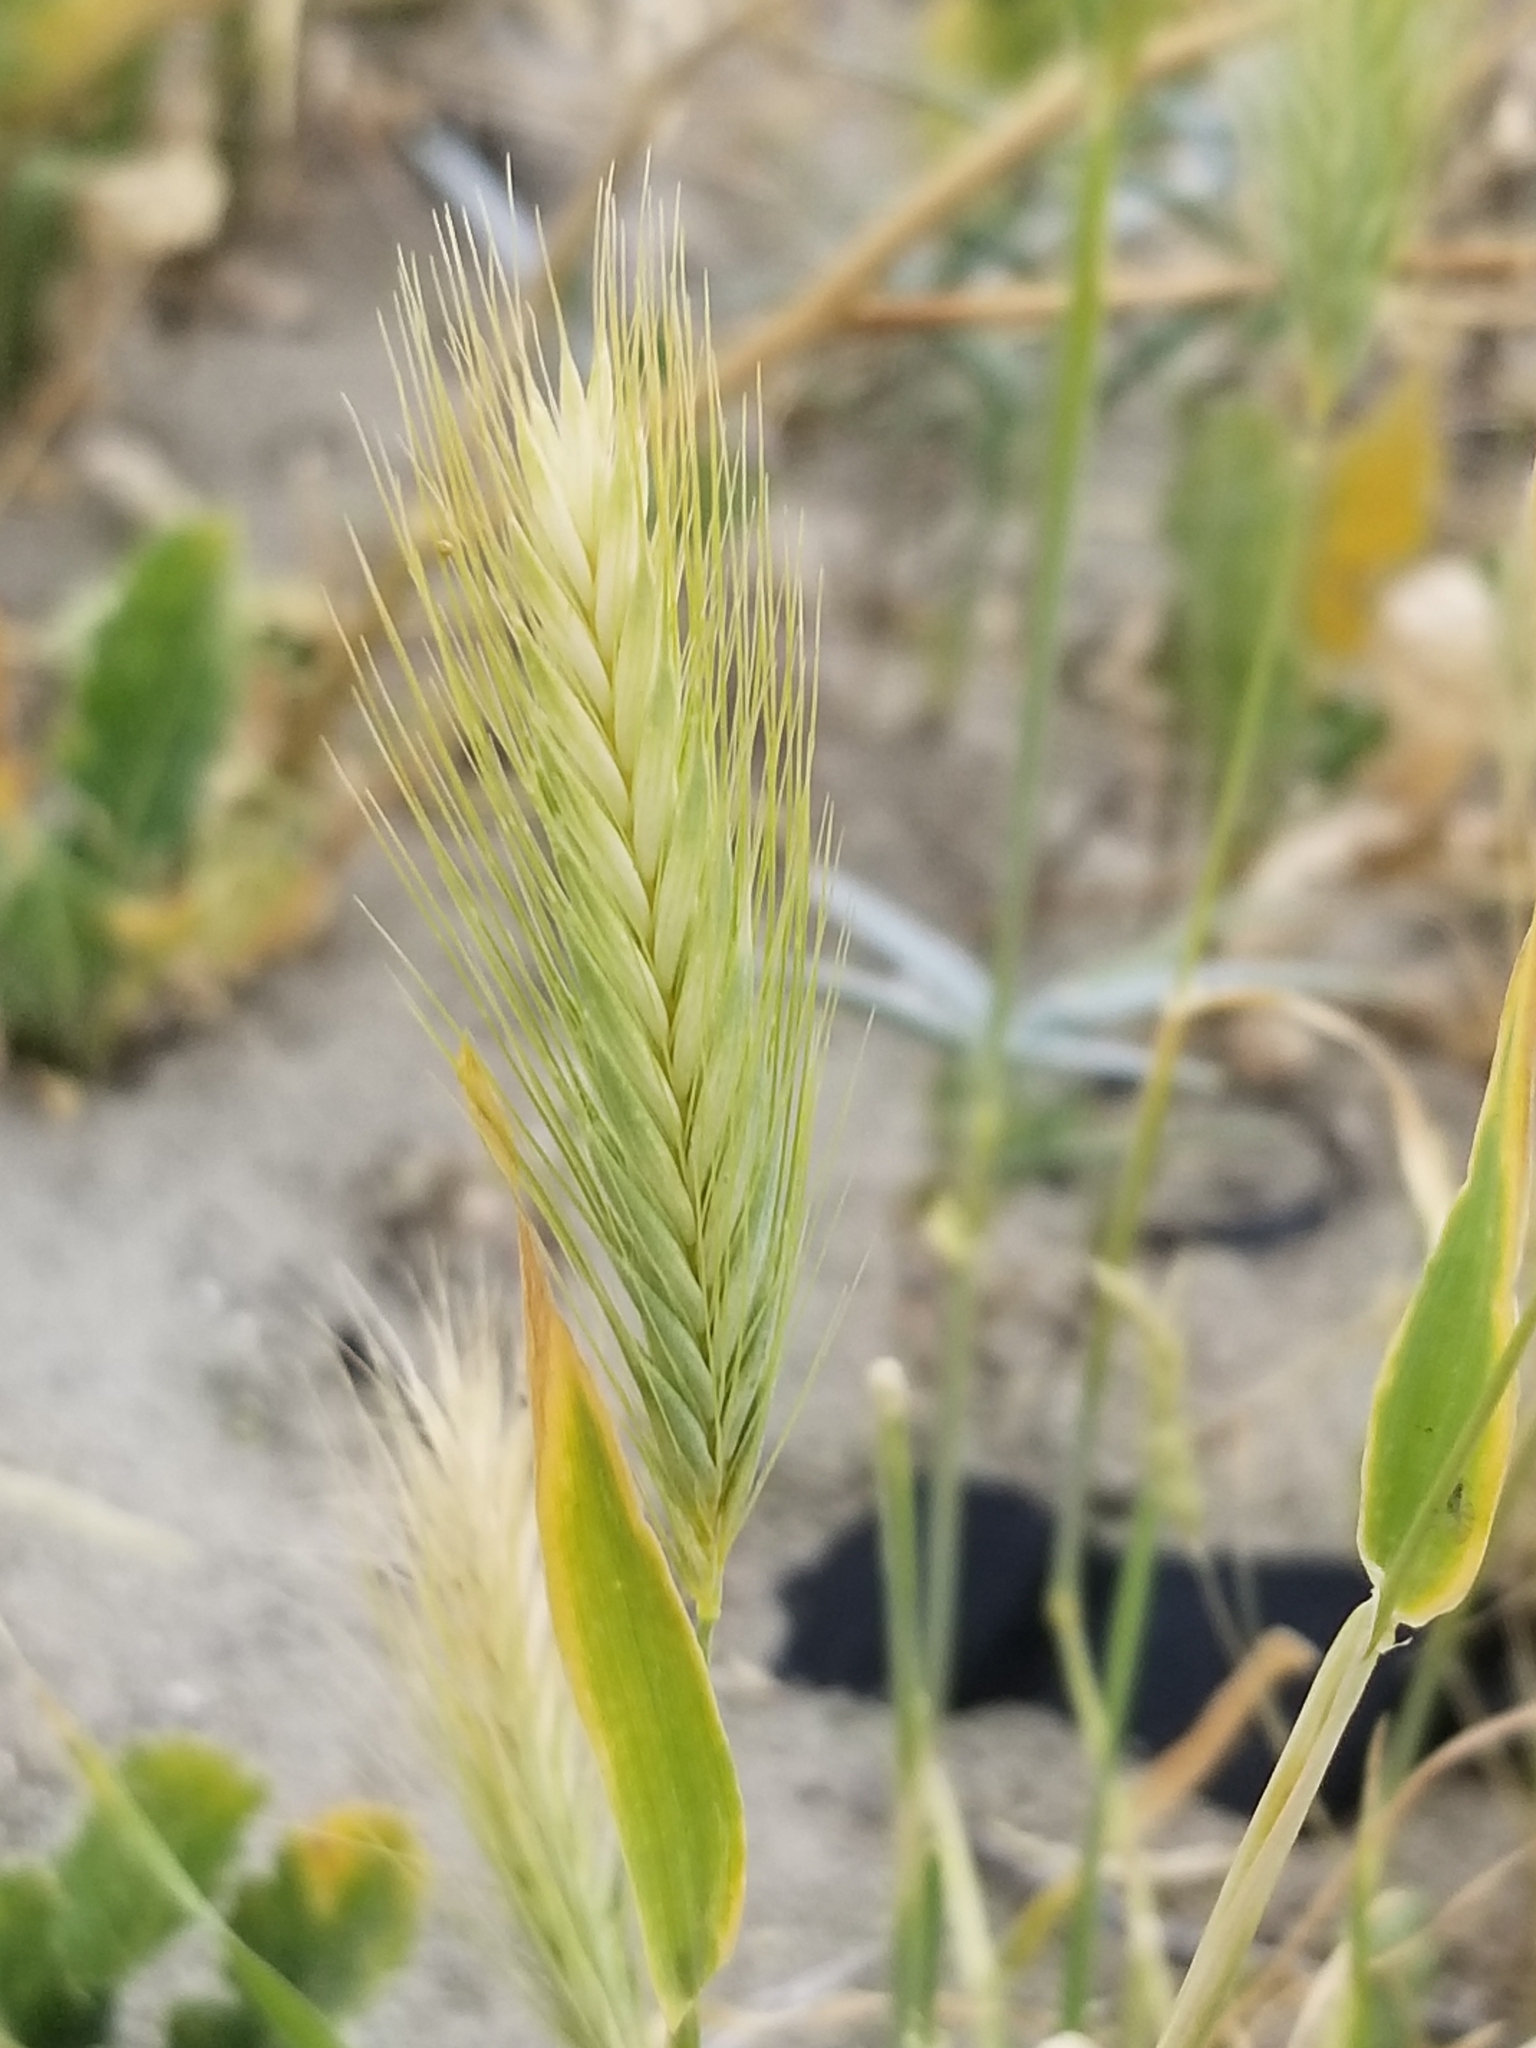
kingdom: Plantae
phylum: Tracheophyta
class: Liliopsida
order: Poales
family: Poaceae
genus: Hordeum
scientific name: Hordeum murinum
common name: Wall barley
